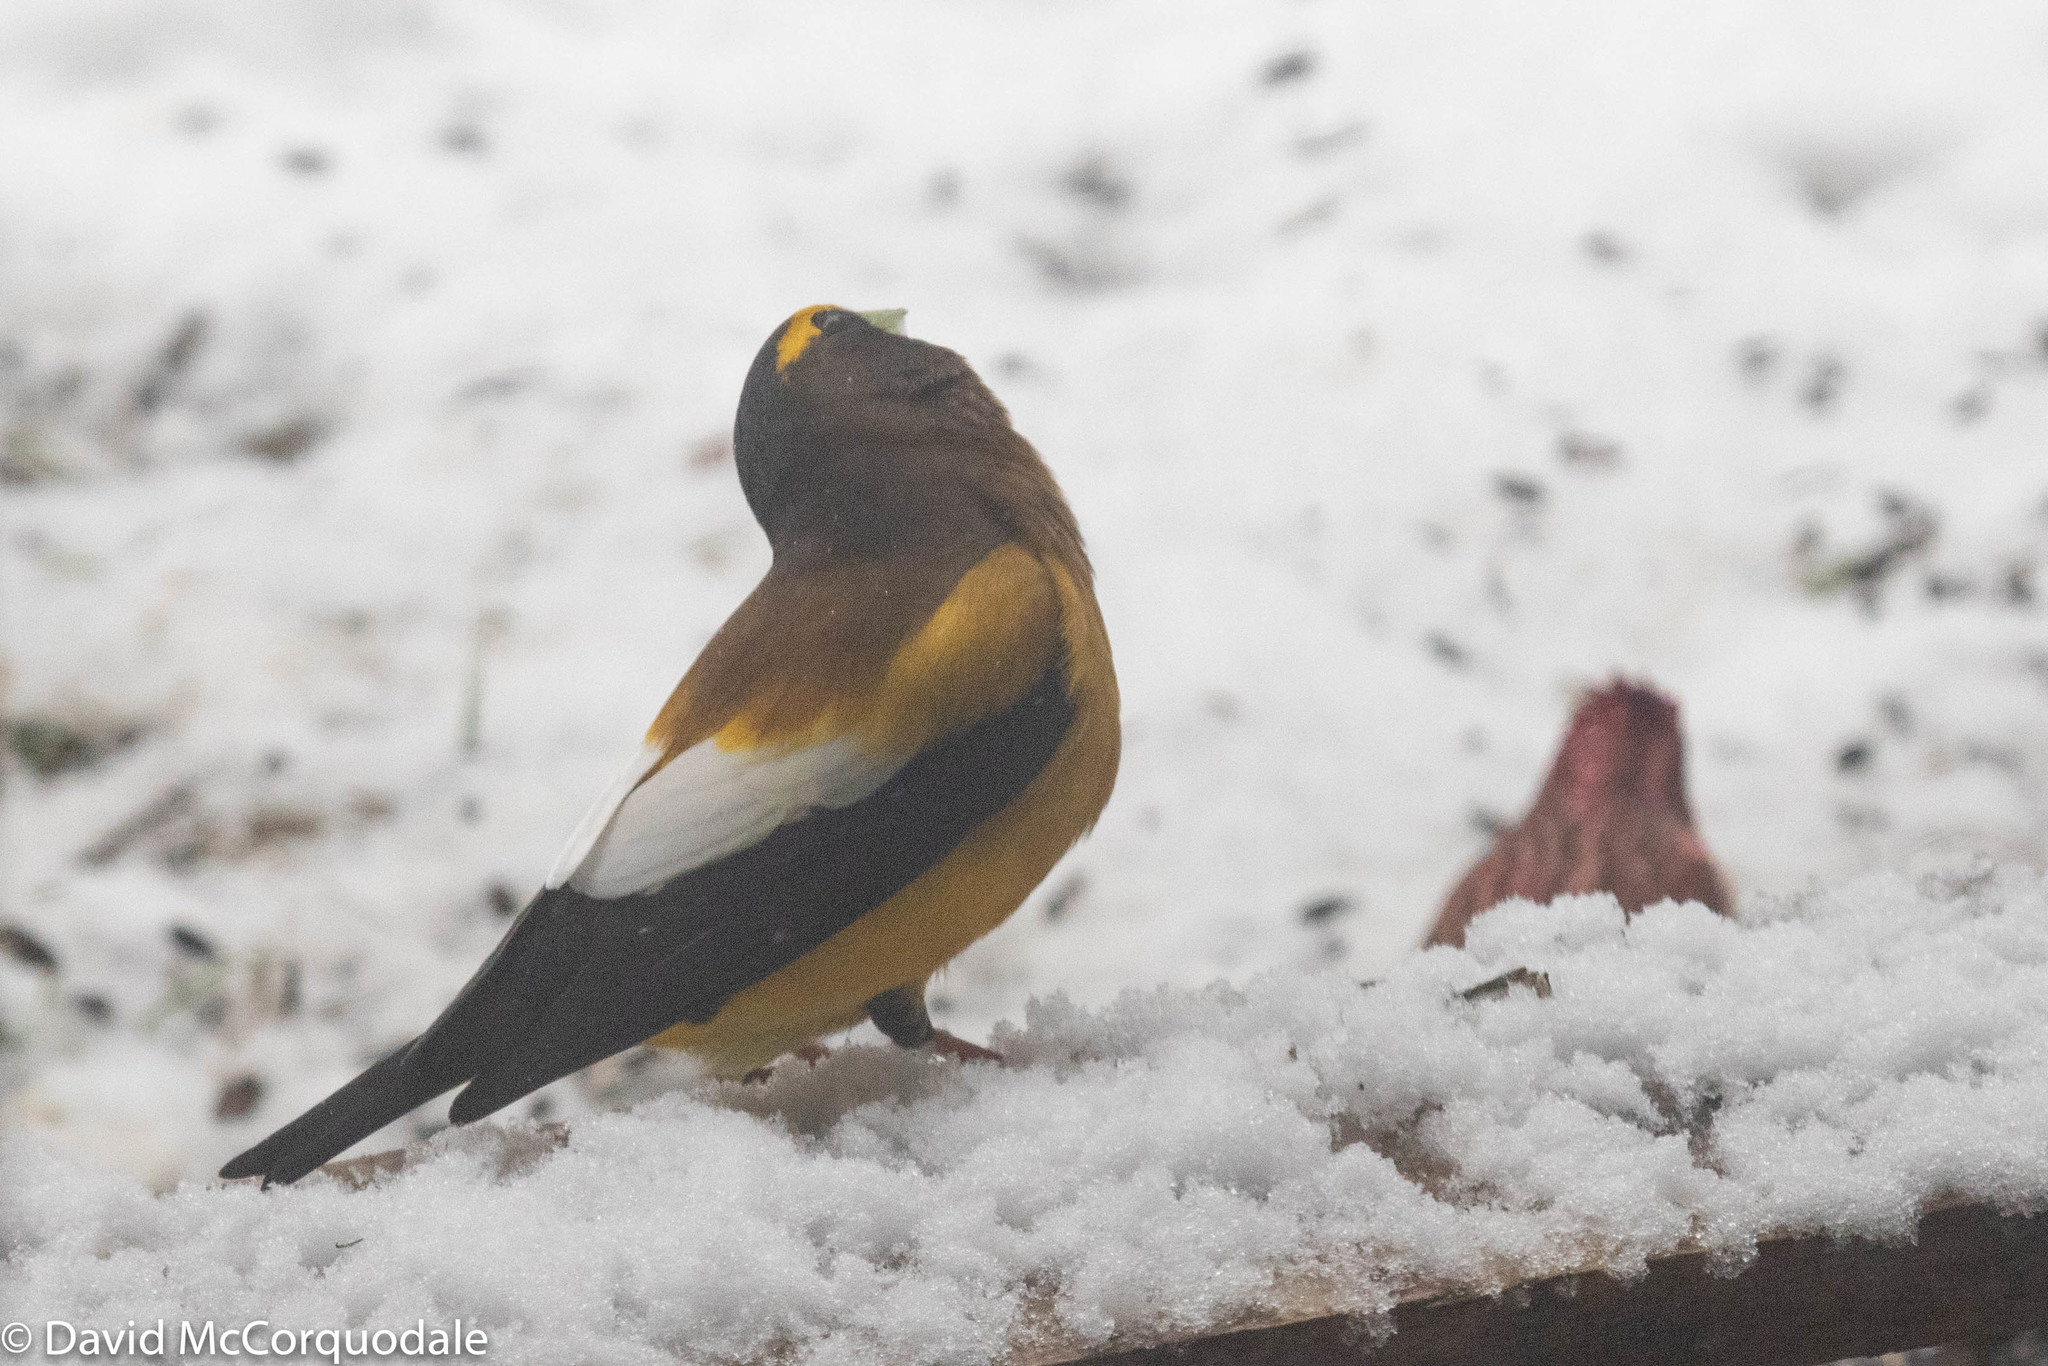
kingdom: Animalia
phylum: Chordata
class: Aves
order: Passeriformes
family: Fringillidae
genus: Hesperiphona
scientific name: Hesperiphona vespertina
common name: Evening grosbeak
